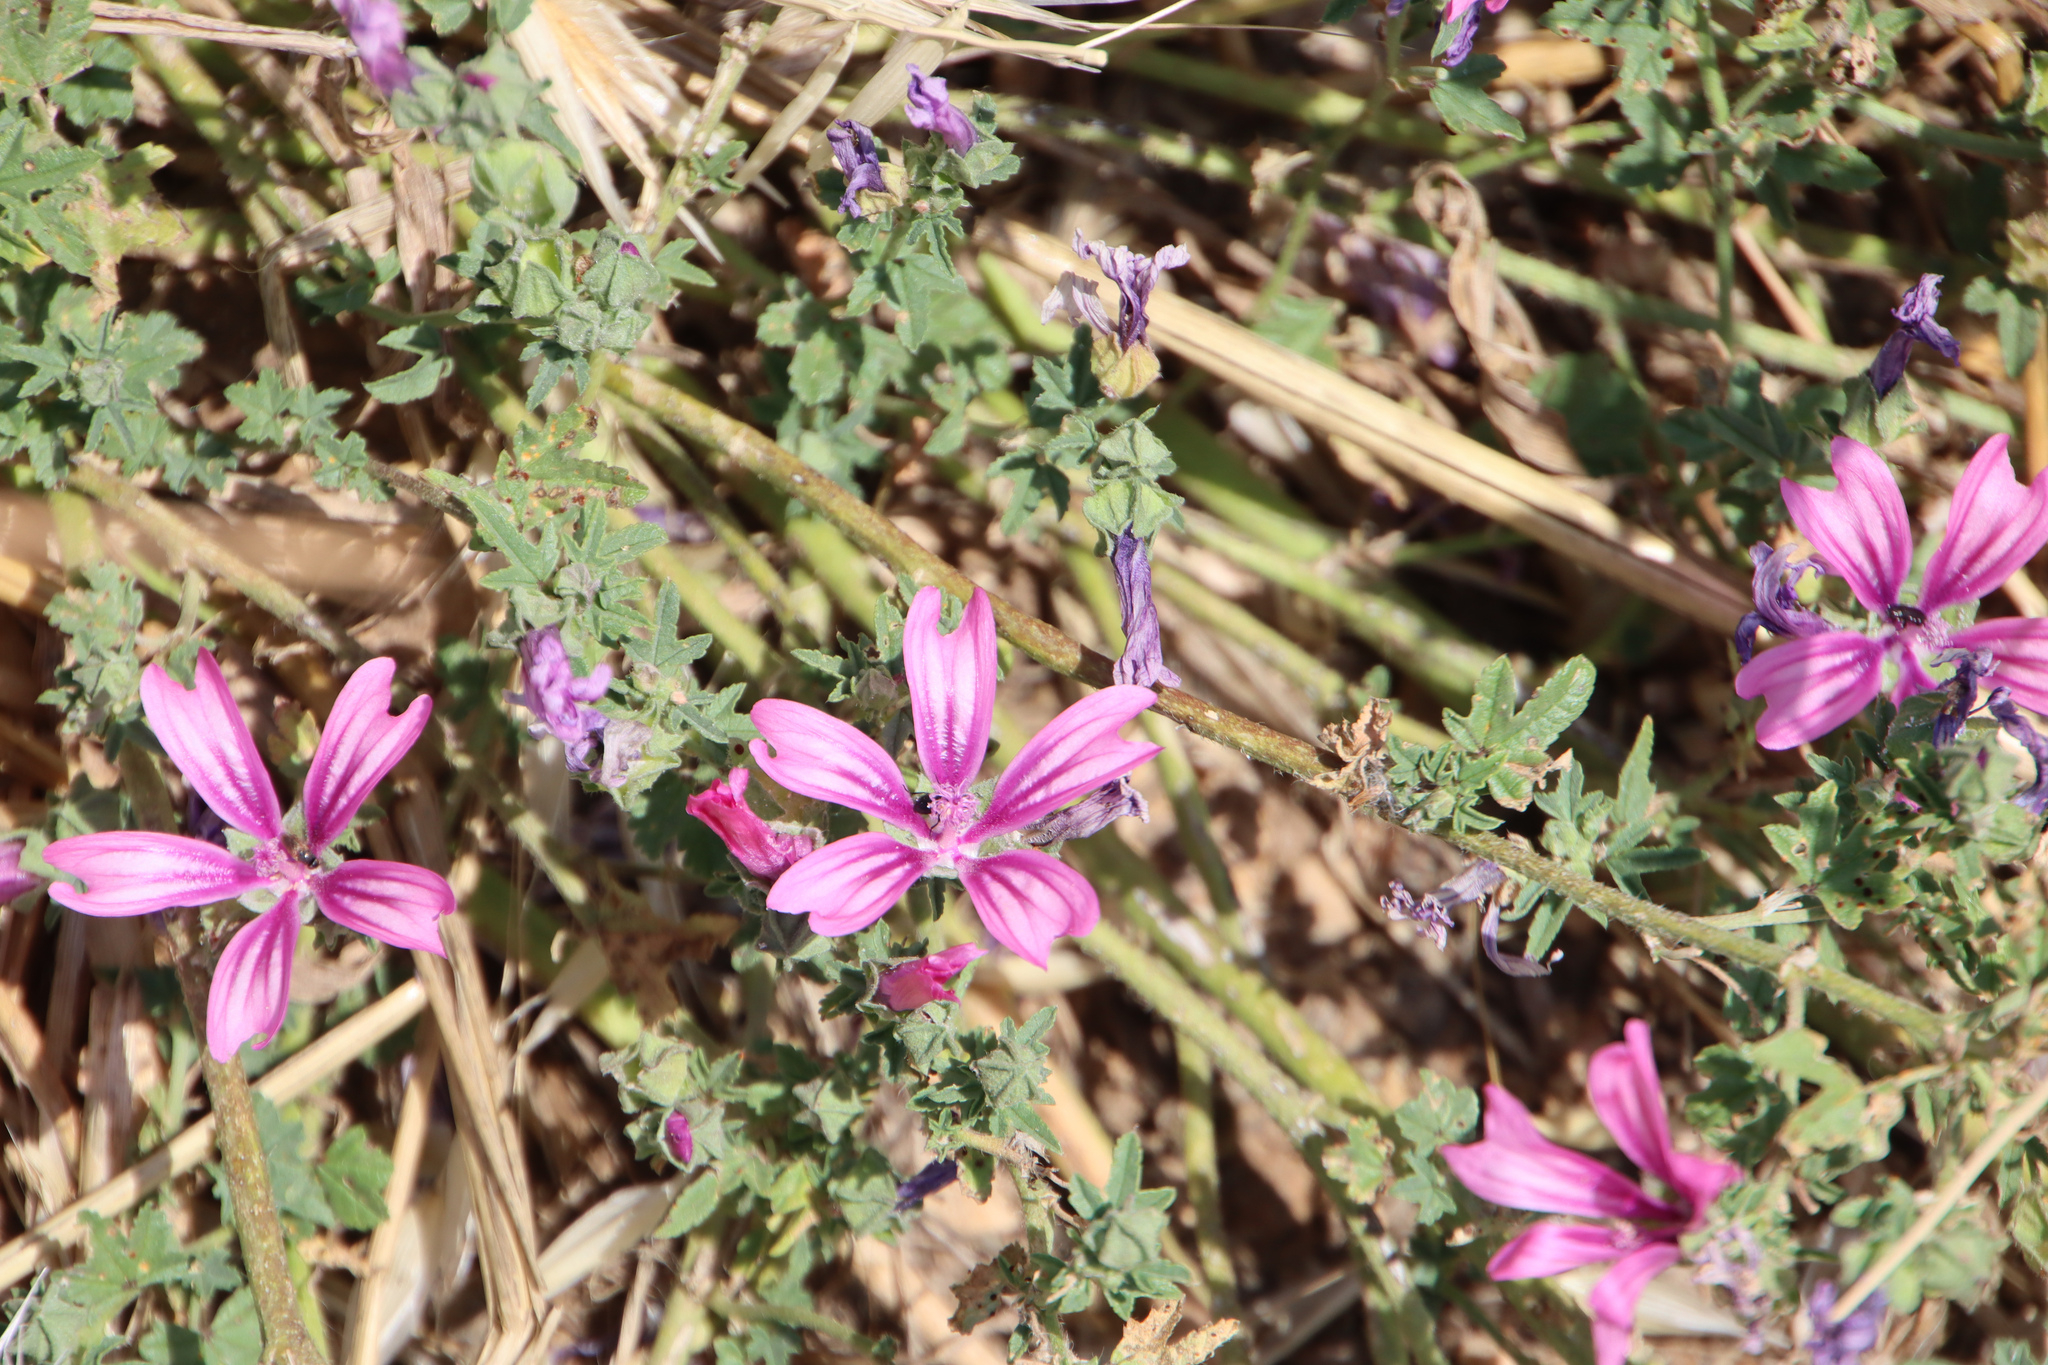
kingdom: Plantae
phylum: Tracheophyta
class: Magnoliopsida
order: Malvales
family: Malvaceae
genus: Malva
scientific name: Malva sylvestris
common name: Common mallow
